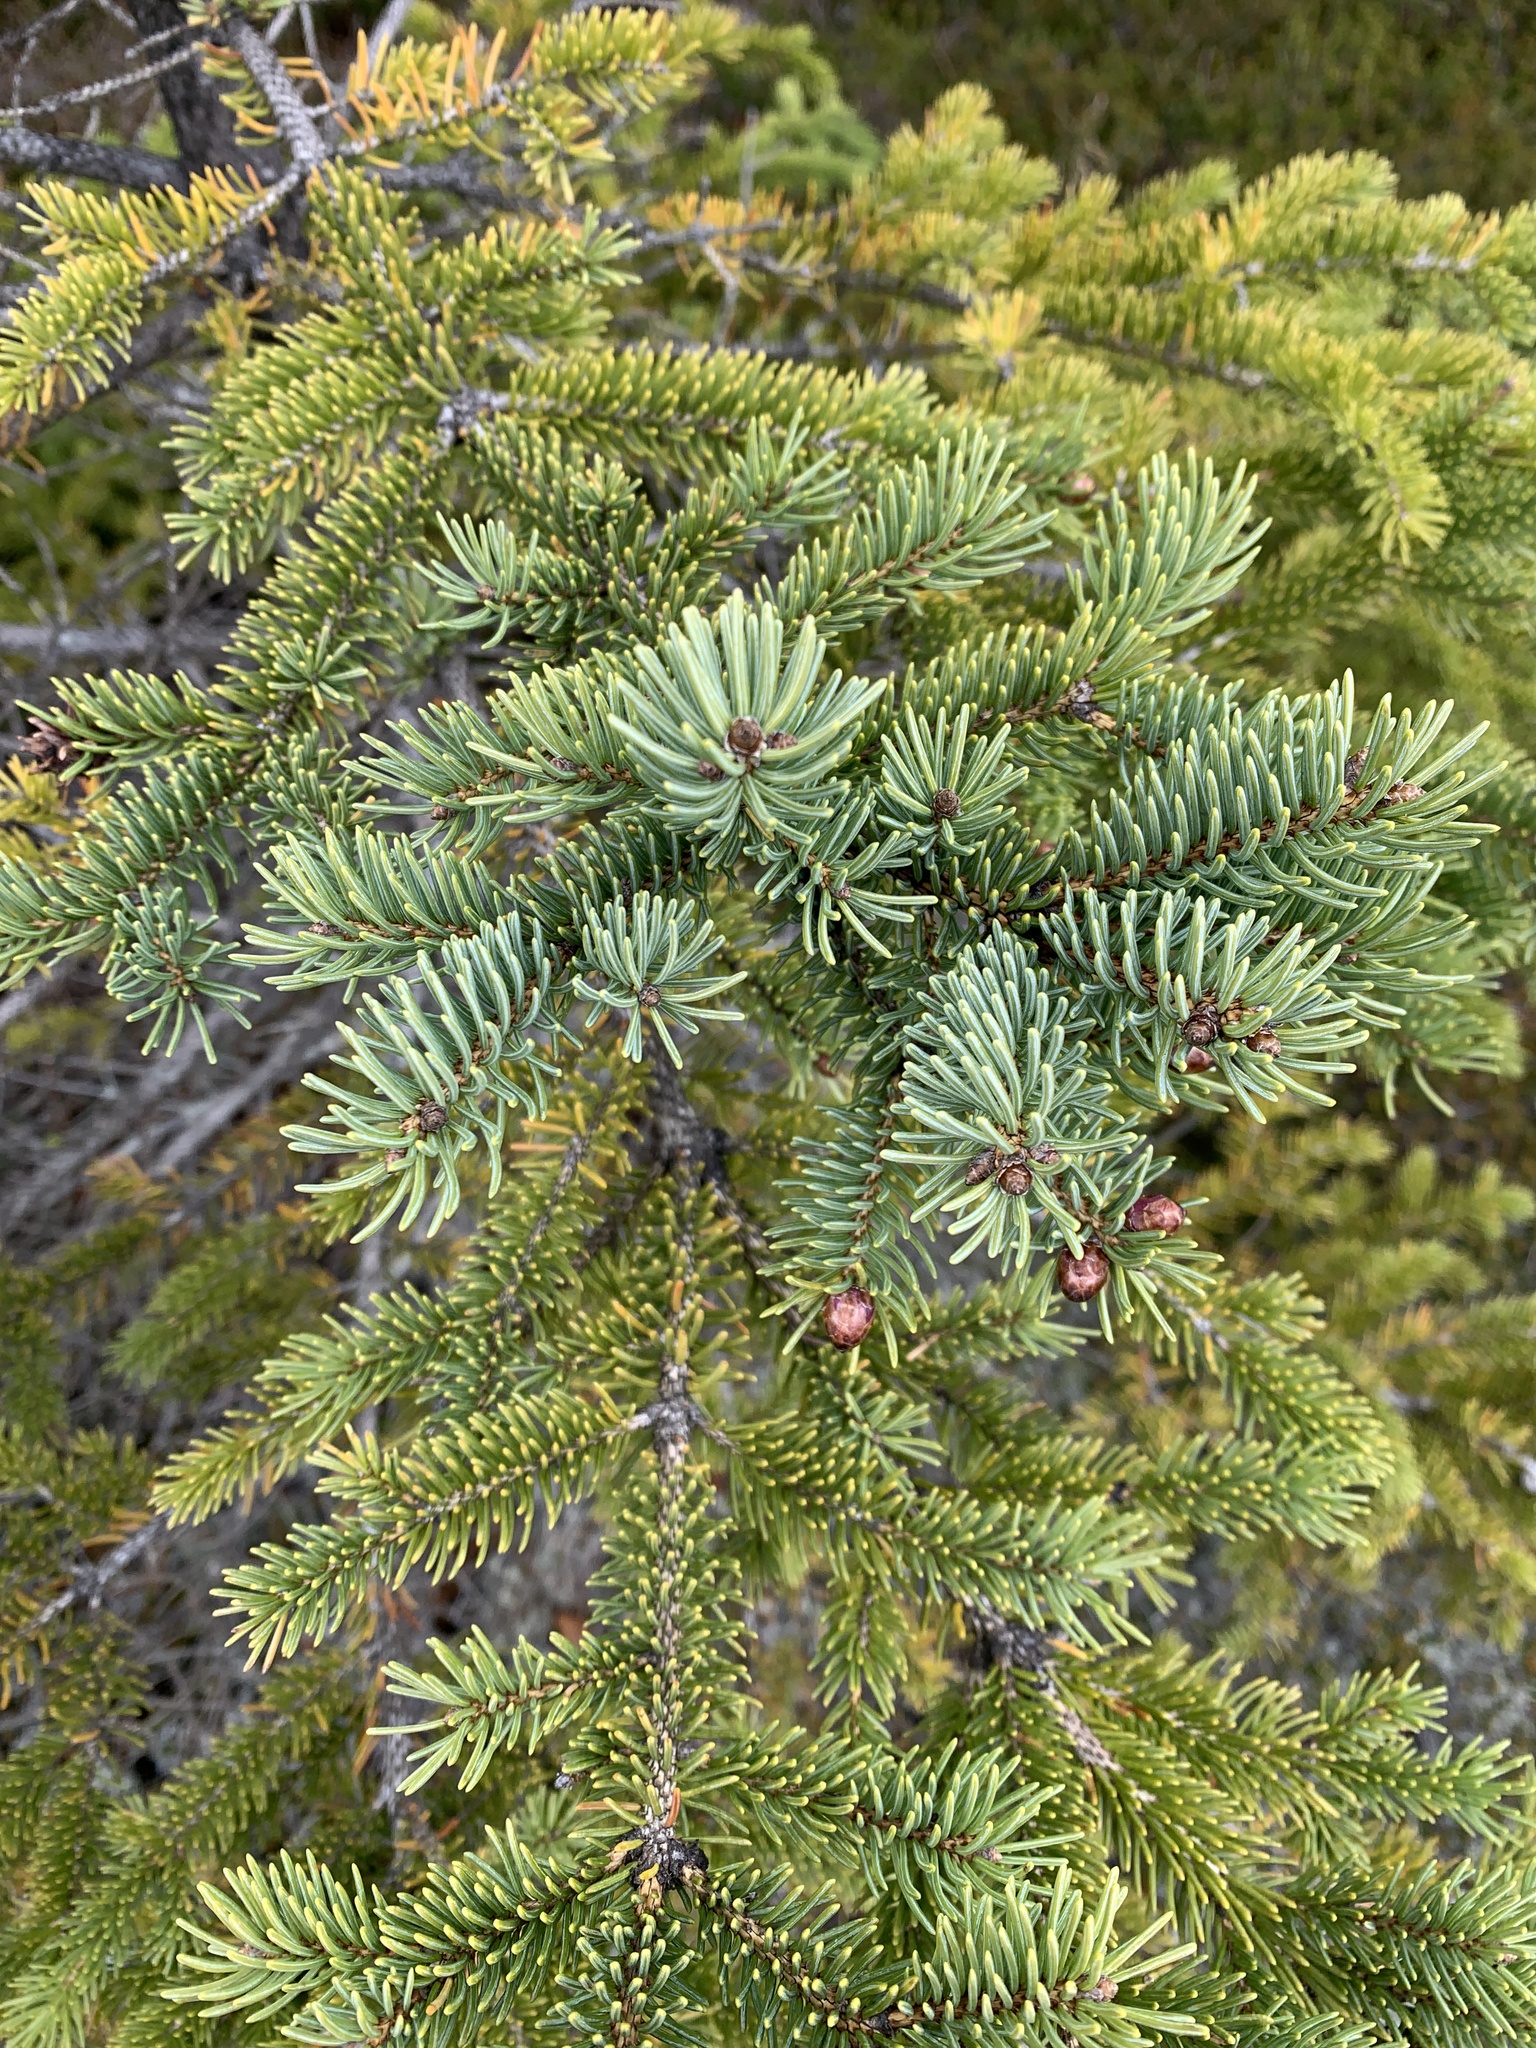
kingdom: Plantae
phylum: Tracheophyta
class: Pinopsida
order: Pinales
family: Pinaceae
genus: Picea
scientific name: Picea glauca
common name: White spruce
